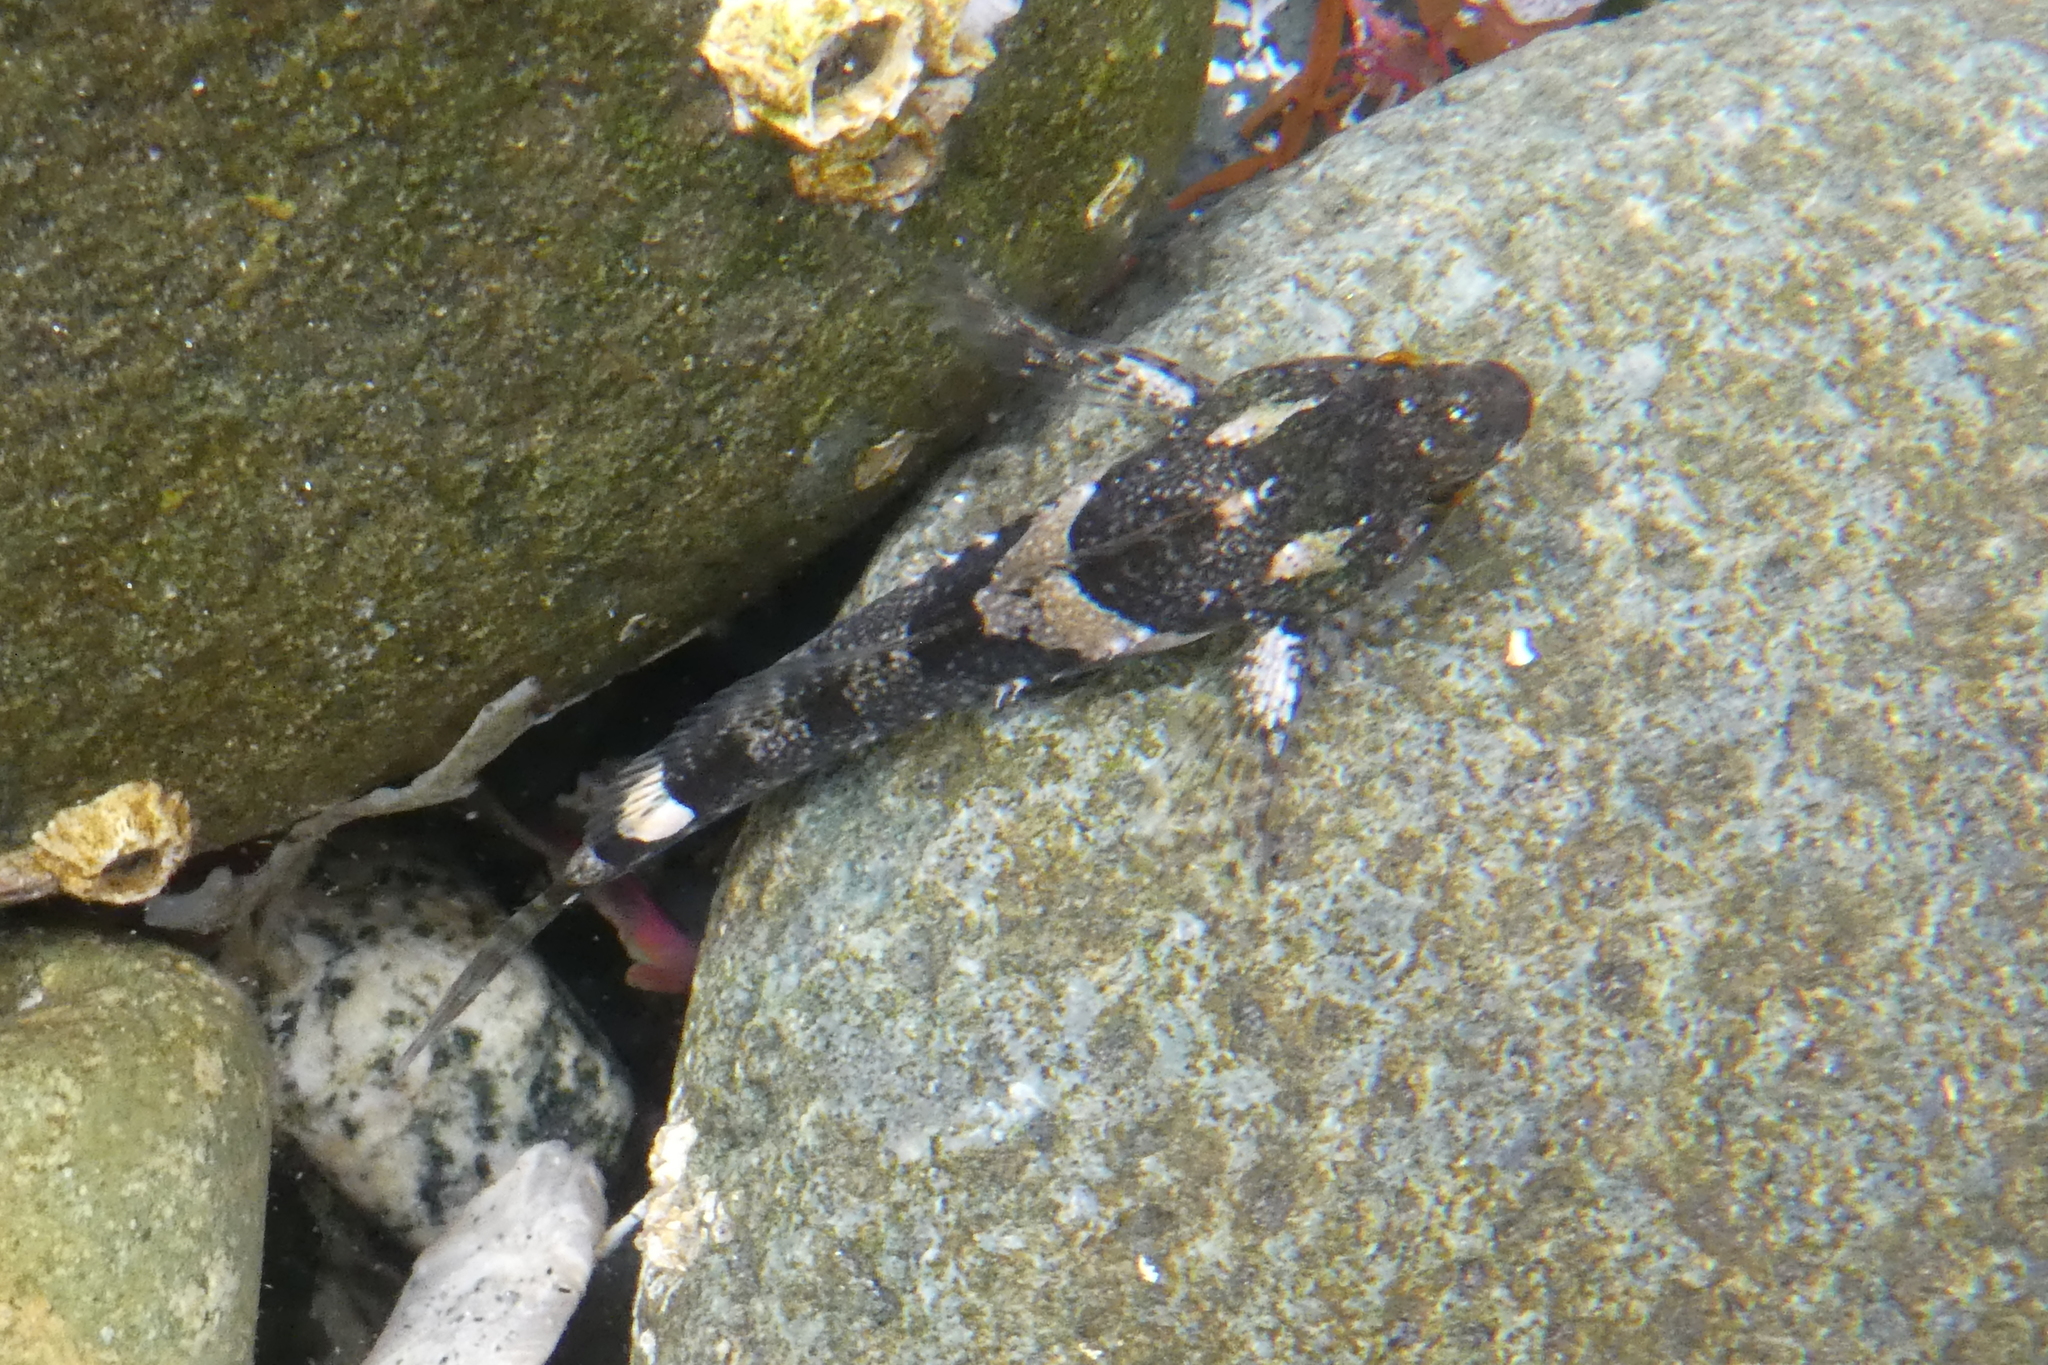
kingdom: Animalia
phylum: Chordata
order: Scorpaeniformes
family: Cottidae
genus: Oligocottus
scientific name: Oligocottus maculosus
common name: Tidepool sculpin
